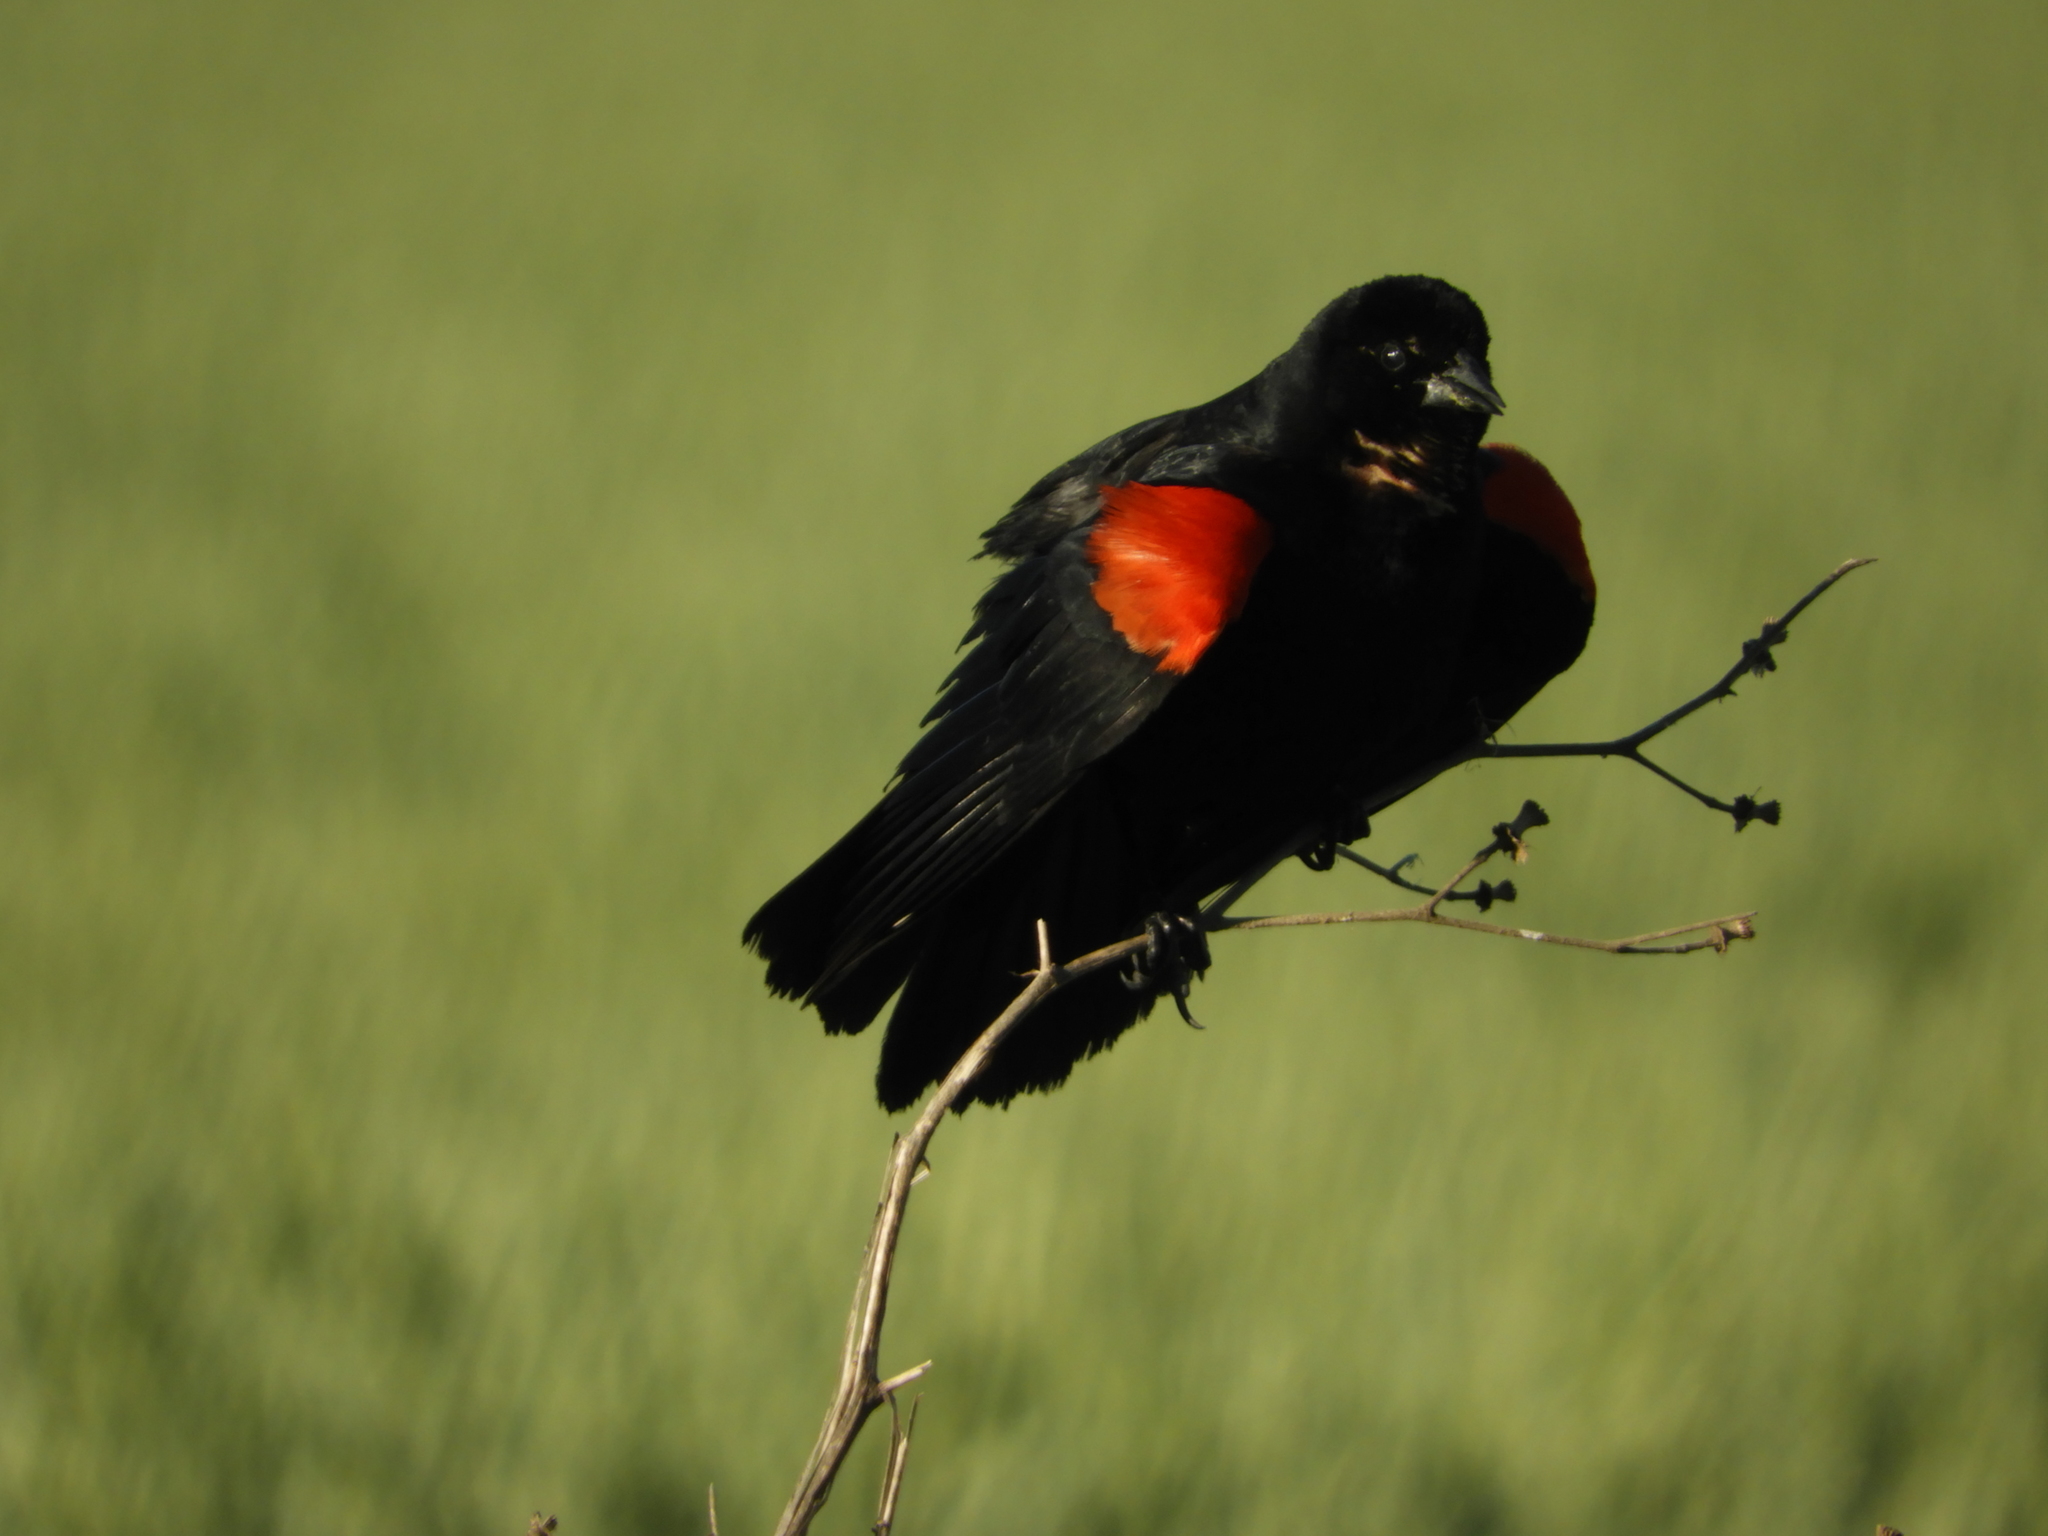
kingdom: Animalia
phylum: Chordata
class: Aves
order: Passeriformes
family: Icteridae
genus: Agelaius
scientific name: Agelaius phoeniceus
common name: Red-winged blackbird
